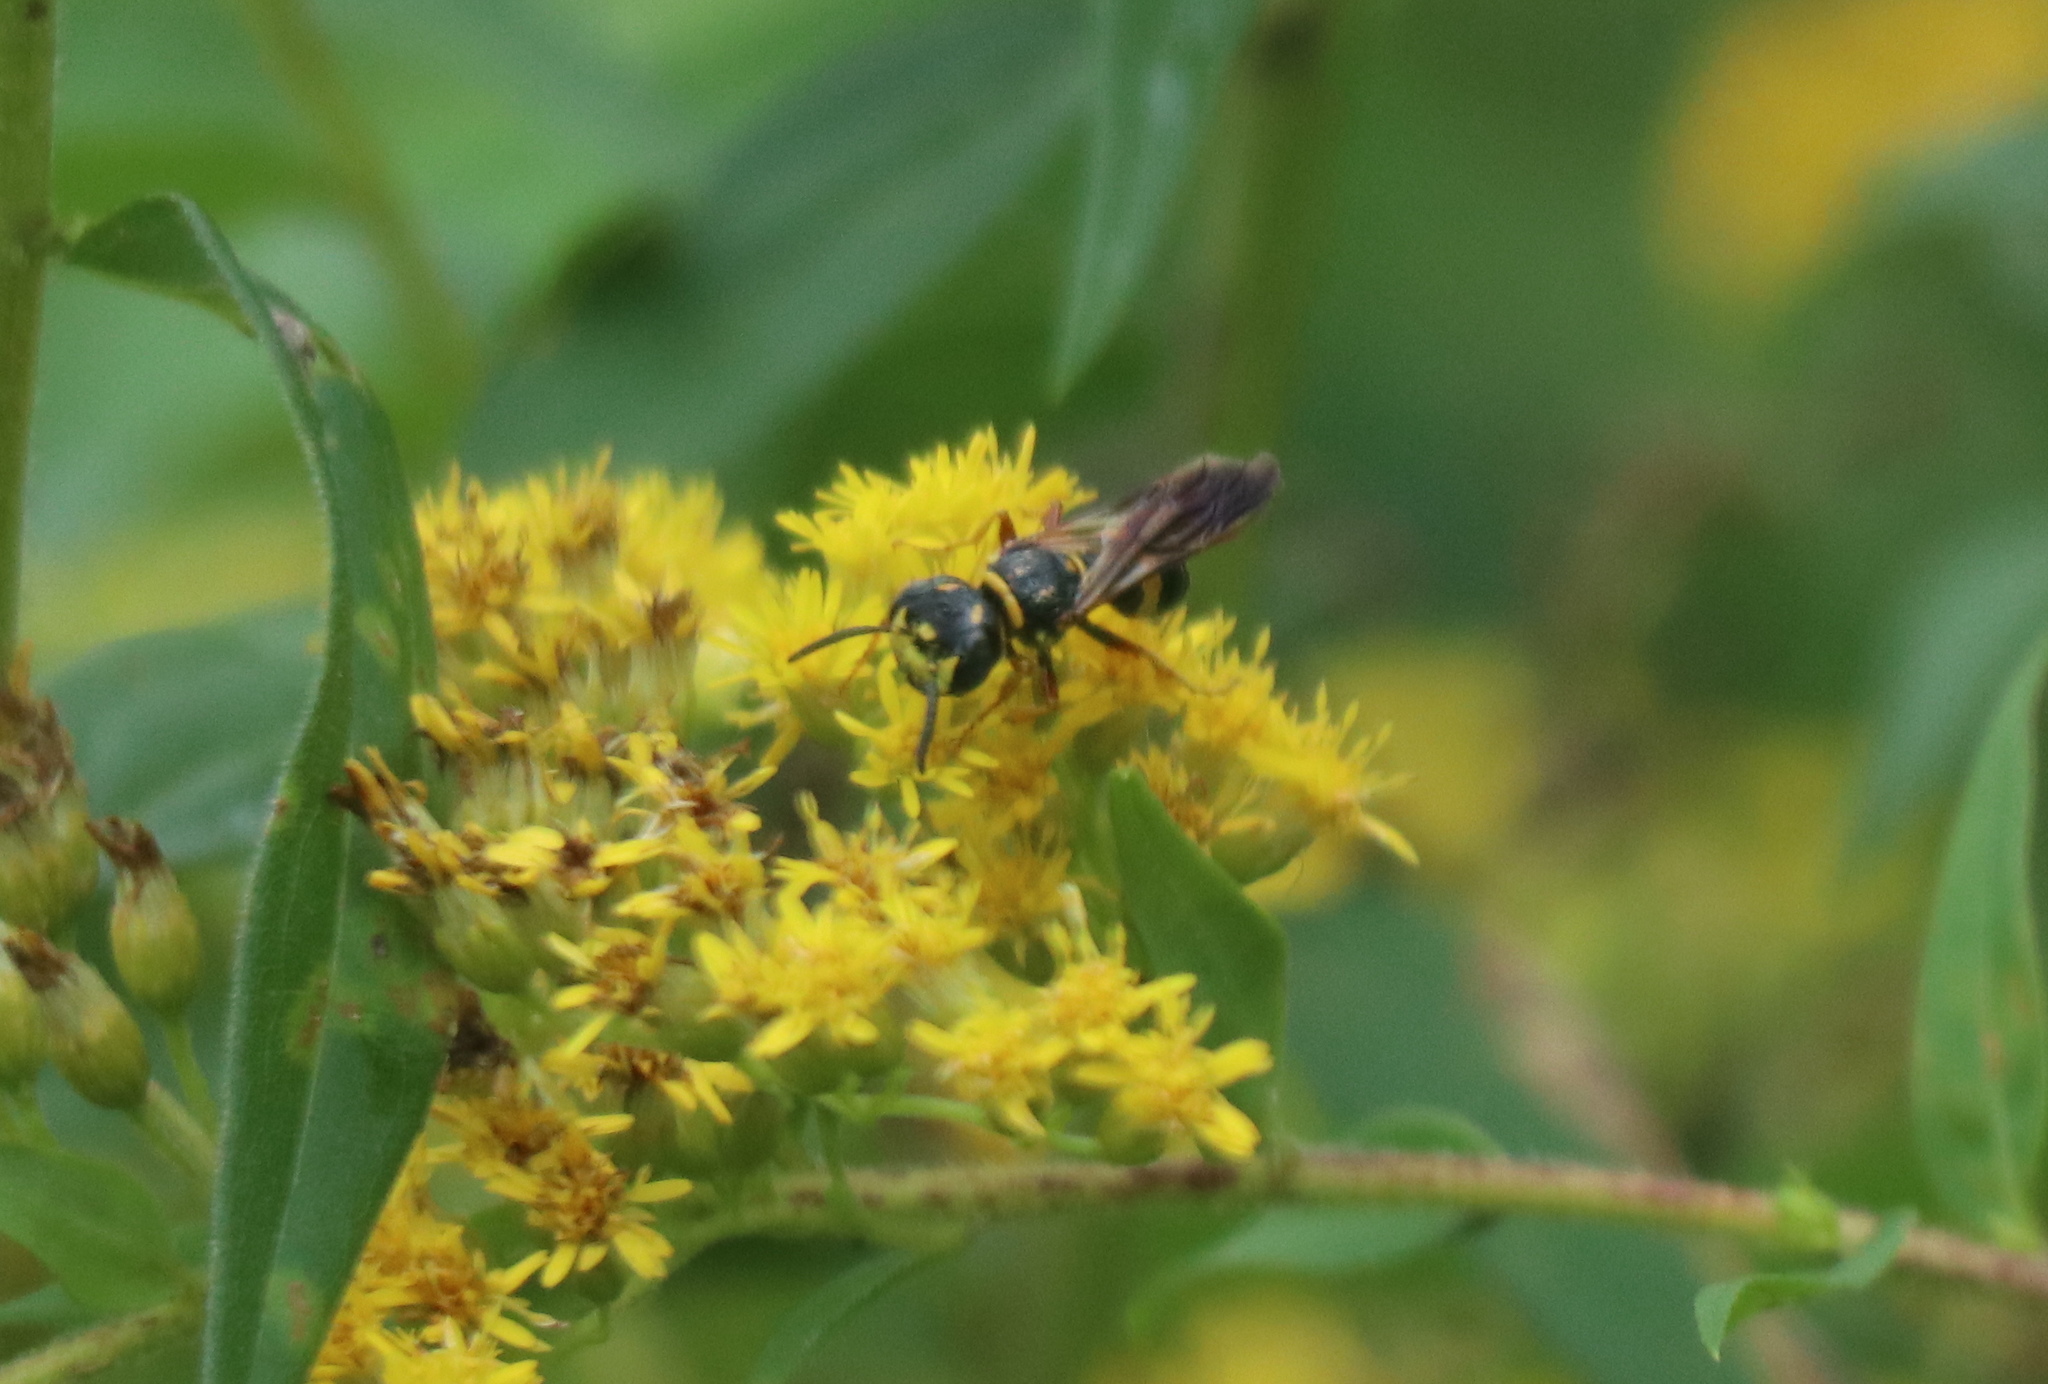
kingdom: Animalia
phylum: Arthropoda
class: Insecta
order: Hymenoptera
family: Crabronidae
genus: Philanthus
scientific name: Philanthus gibbosus
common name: Humped beewolf
